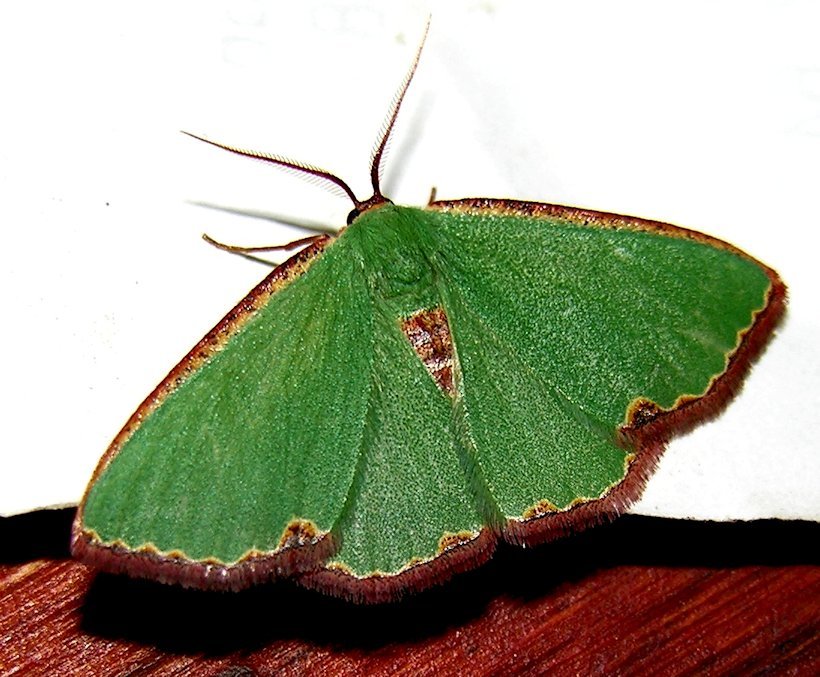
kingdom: Animalia
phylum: Arthropoda
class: Insecta
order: Lepidoptera
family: Geometridae
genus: Heterorachis
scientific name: Heterorachis devocata
